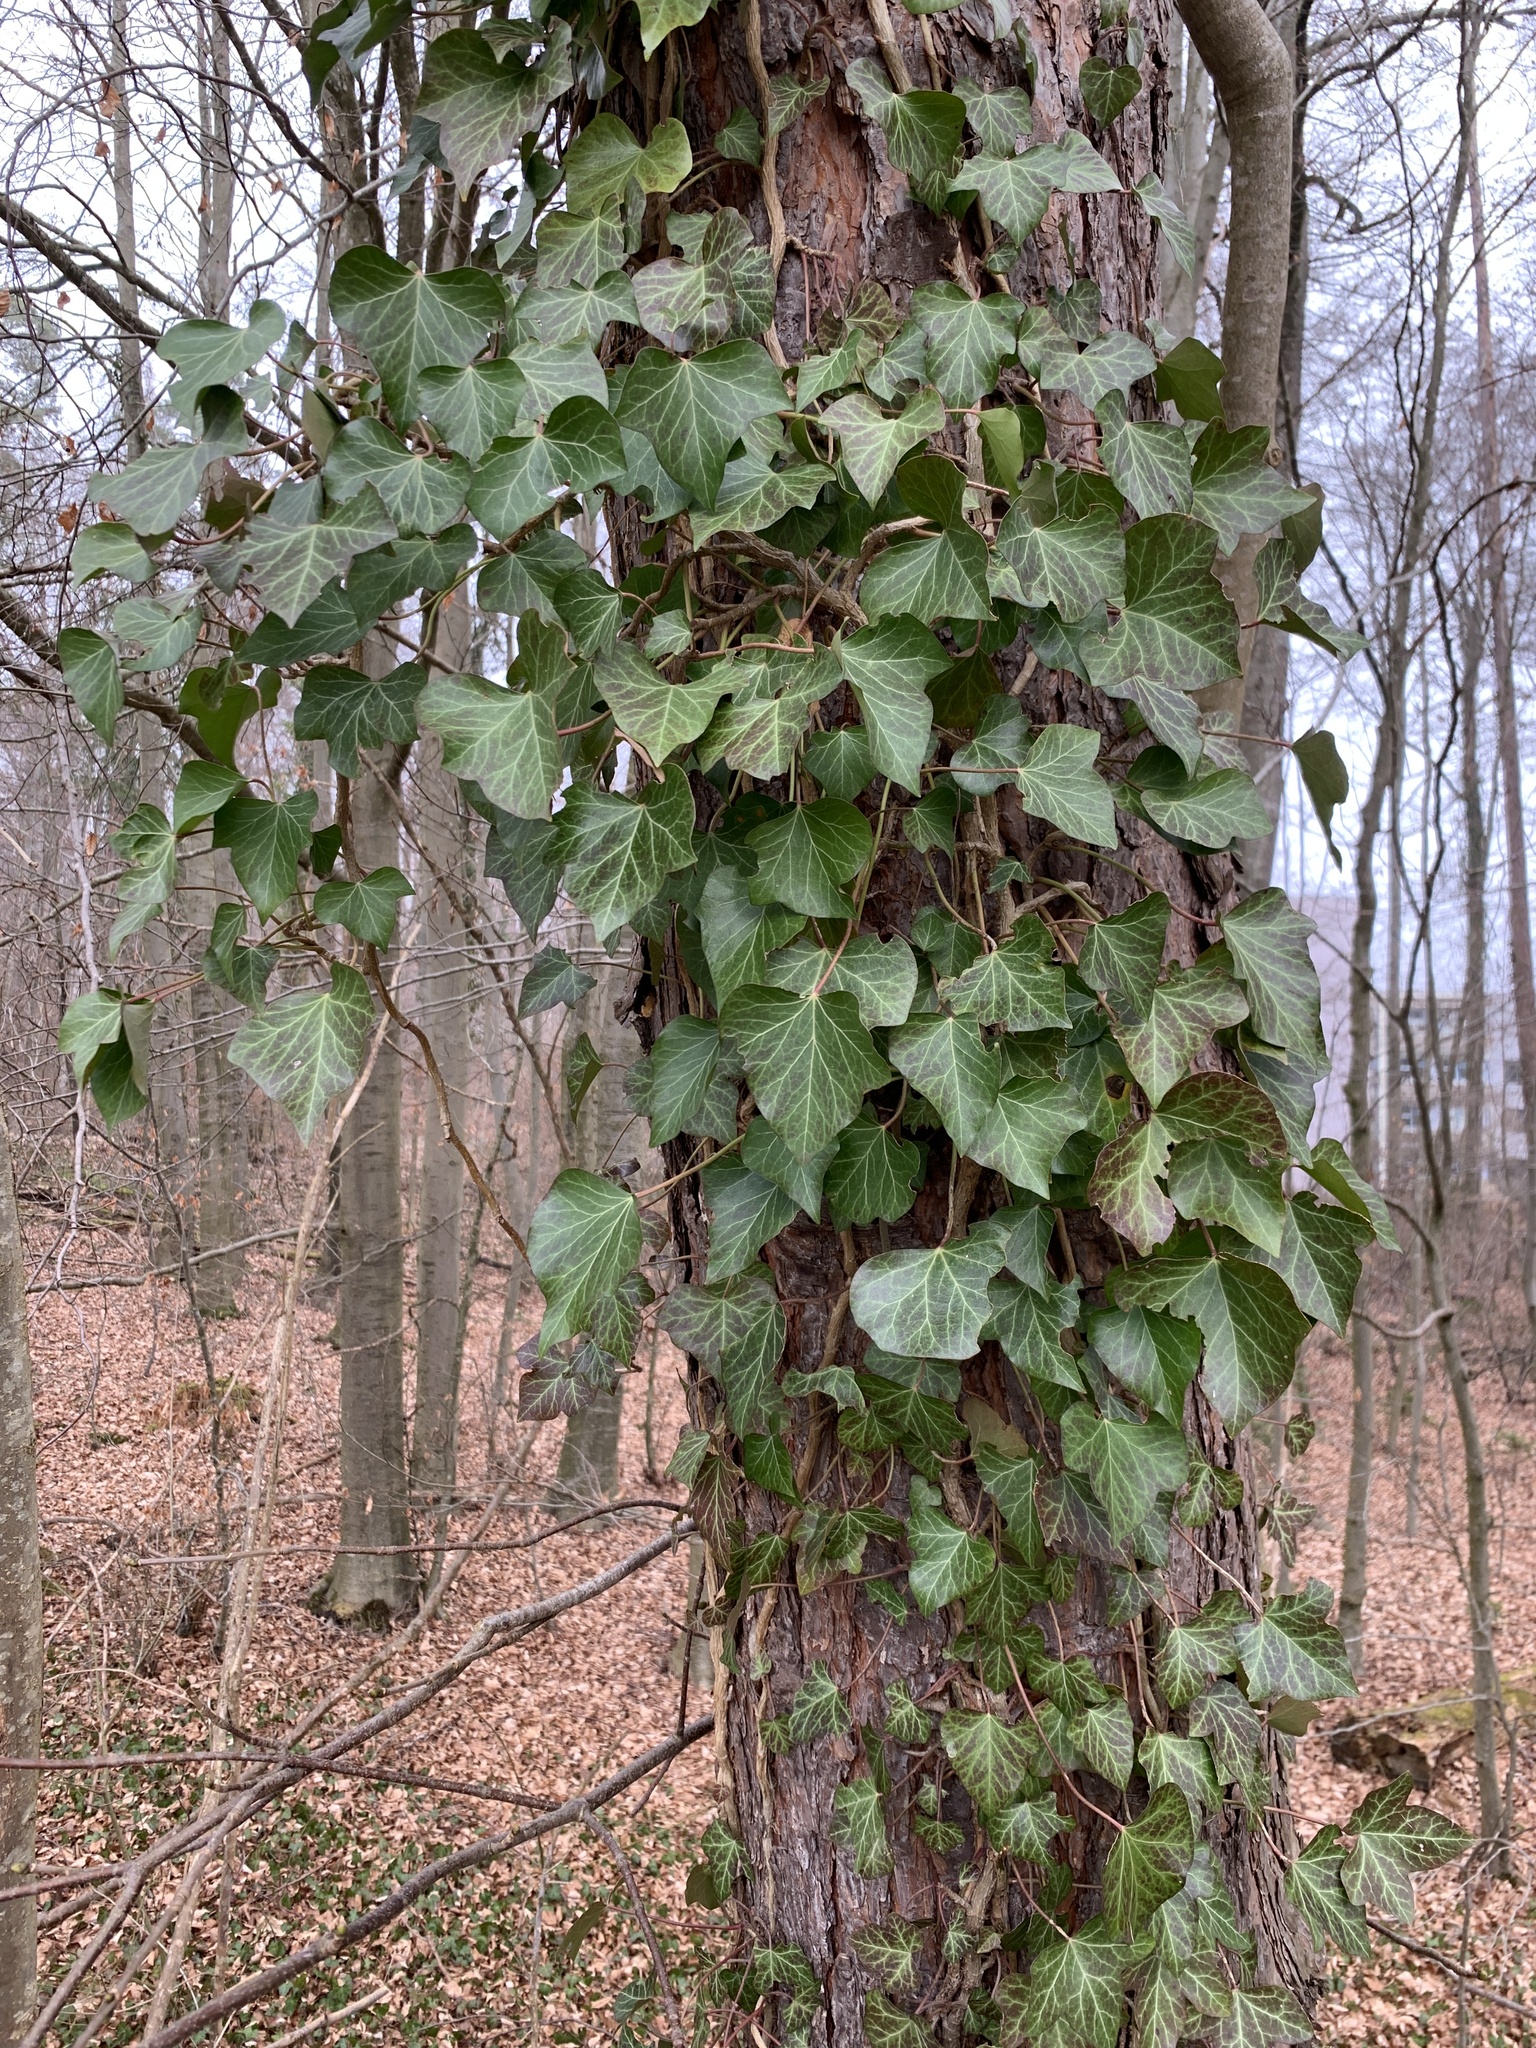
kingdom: Plantae
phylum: Tracheophyta
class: Magnoliopsida
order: Apiales
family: Araliaceae
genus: Hedera
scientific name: Hedera helix
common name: Ivy
